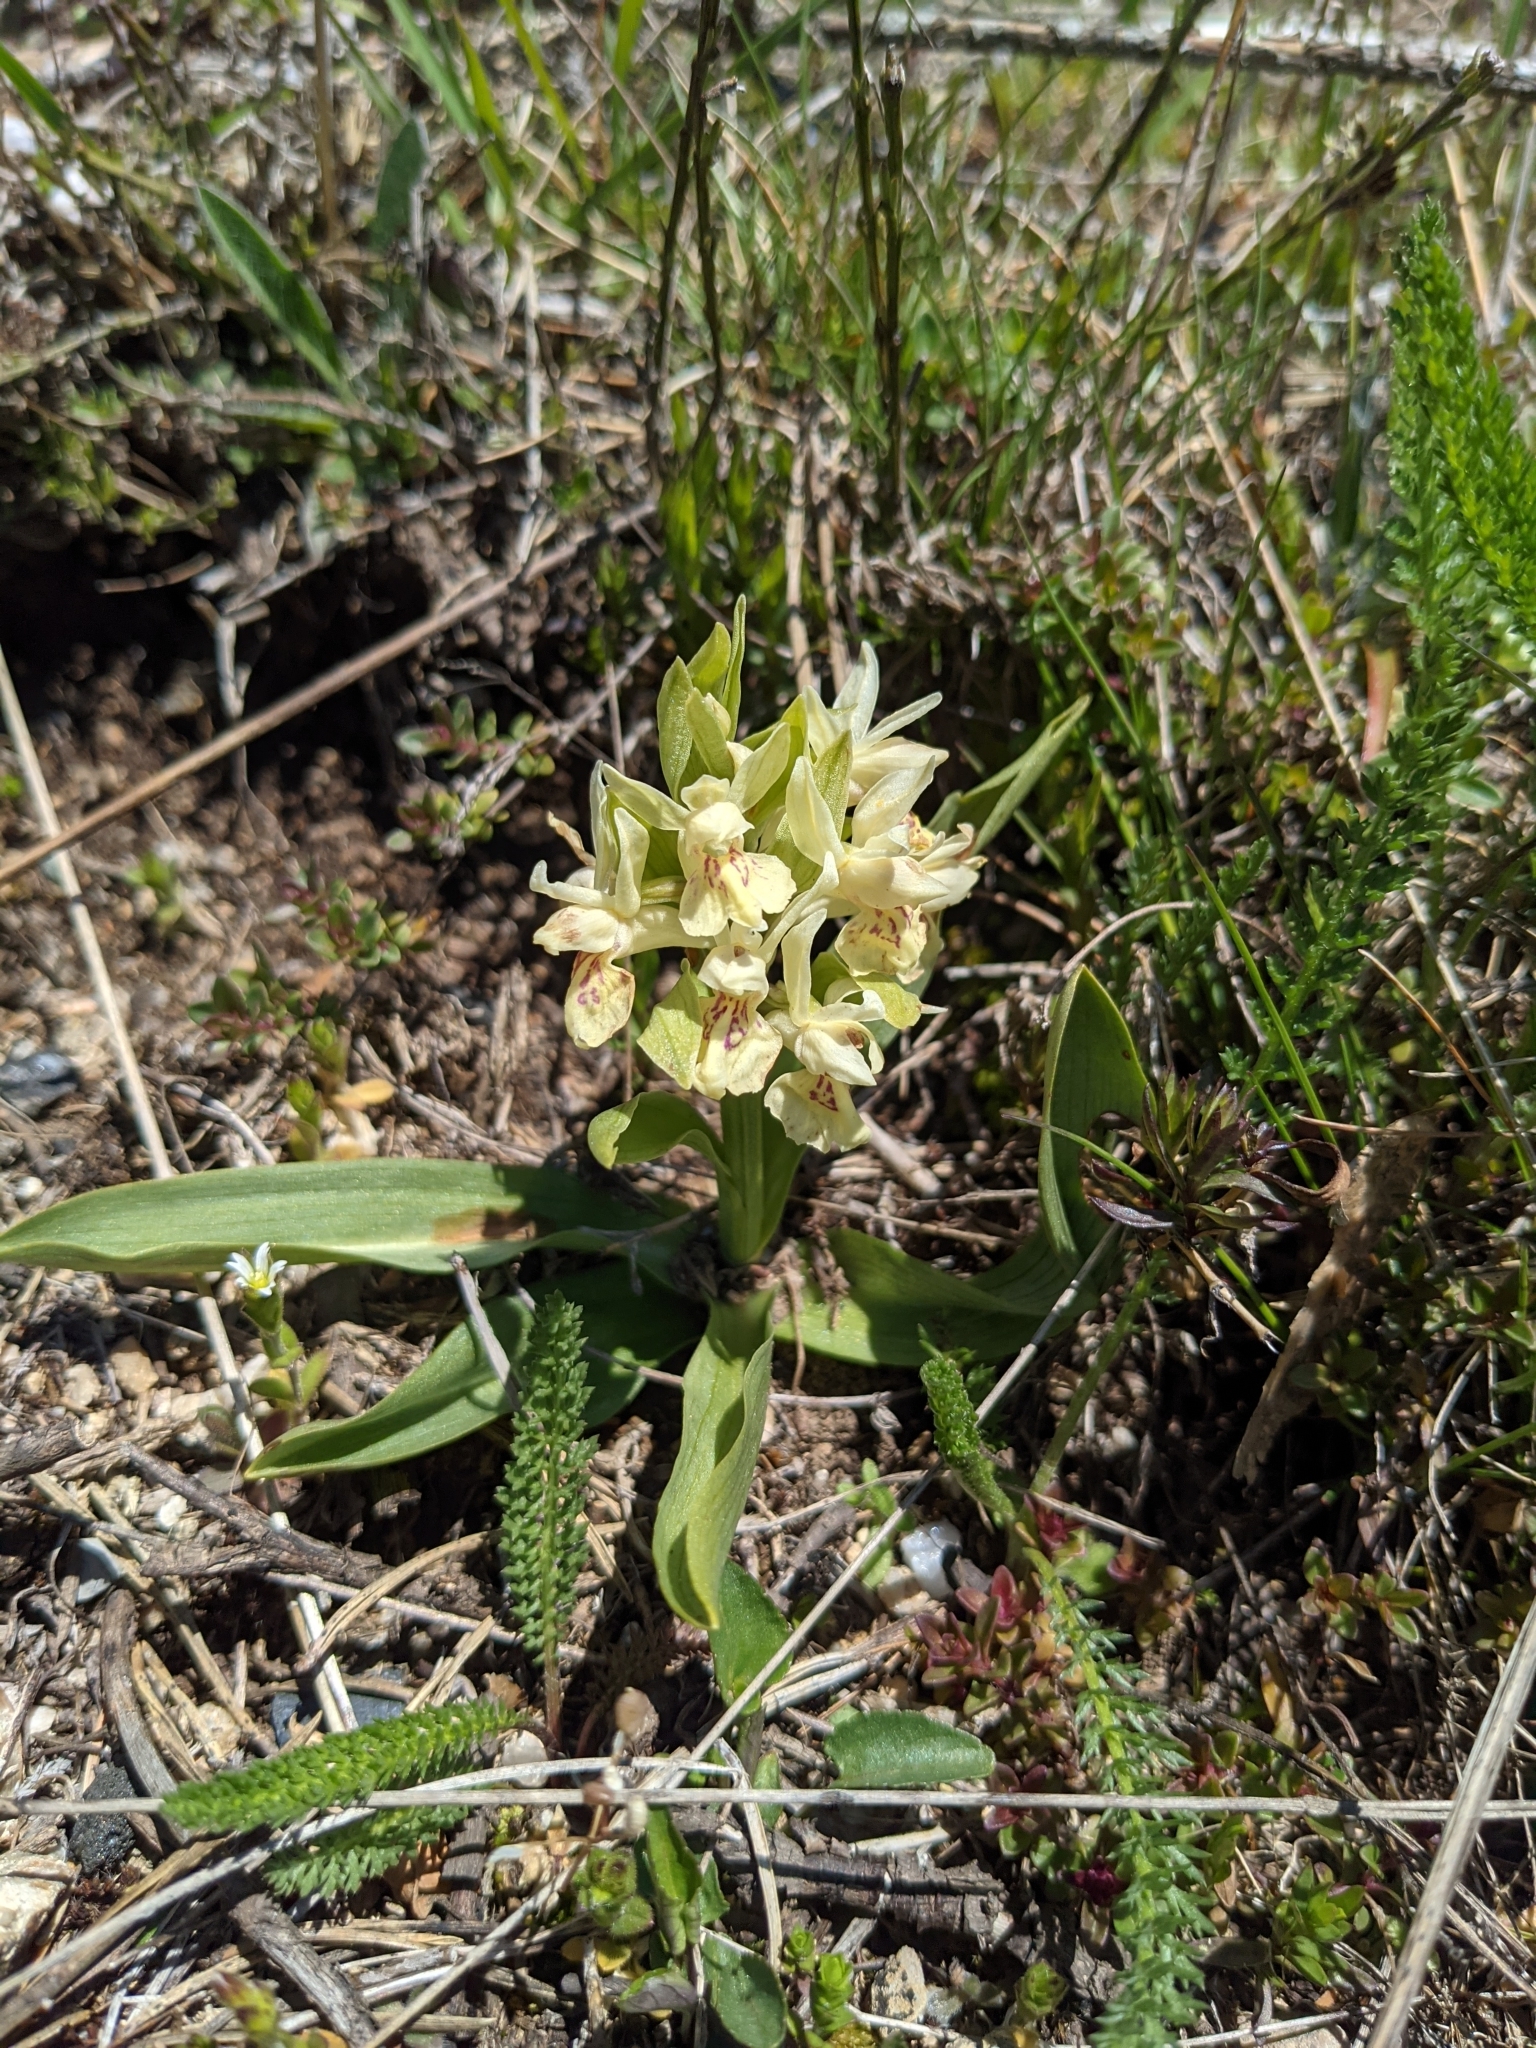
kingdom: Plantae
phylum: Tracheophyta
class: Liliopsida
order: Asparagales
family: Orchidaceae
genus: Dactylorhiza
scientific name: Dactylorhiza sambucina
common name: Elder-flowered orchid
